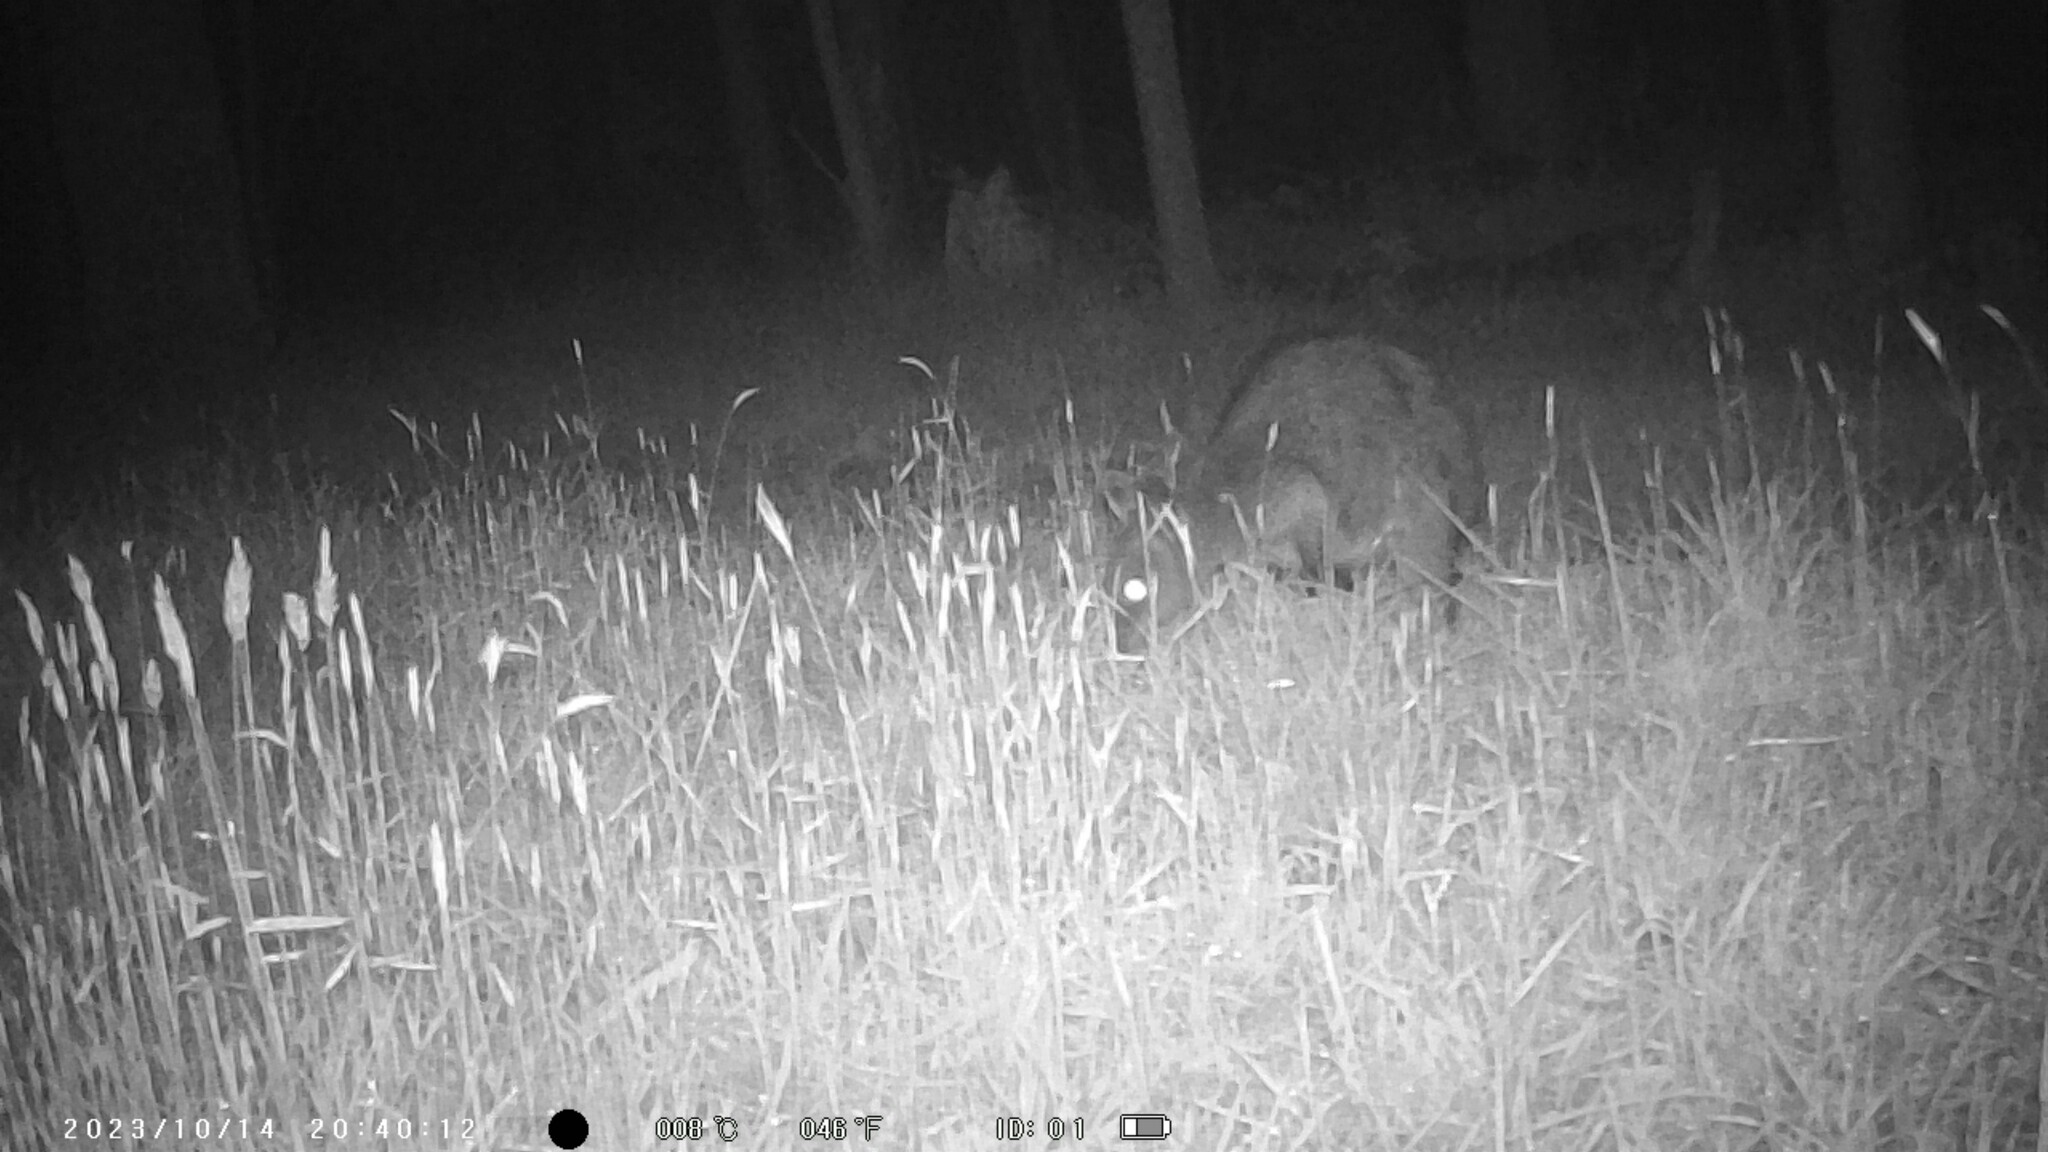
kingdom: Animalia
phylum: Chordata
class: Mammalia
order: Diprotodontia
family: Macropodidae
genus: Wallabia
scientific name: Wallabia bicolor
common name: Swamp wallaby
